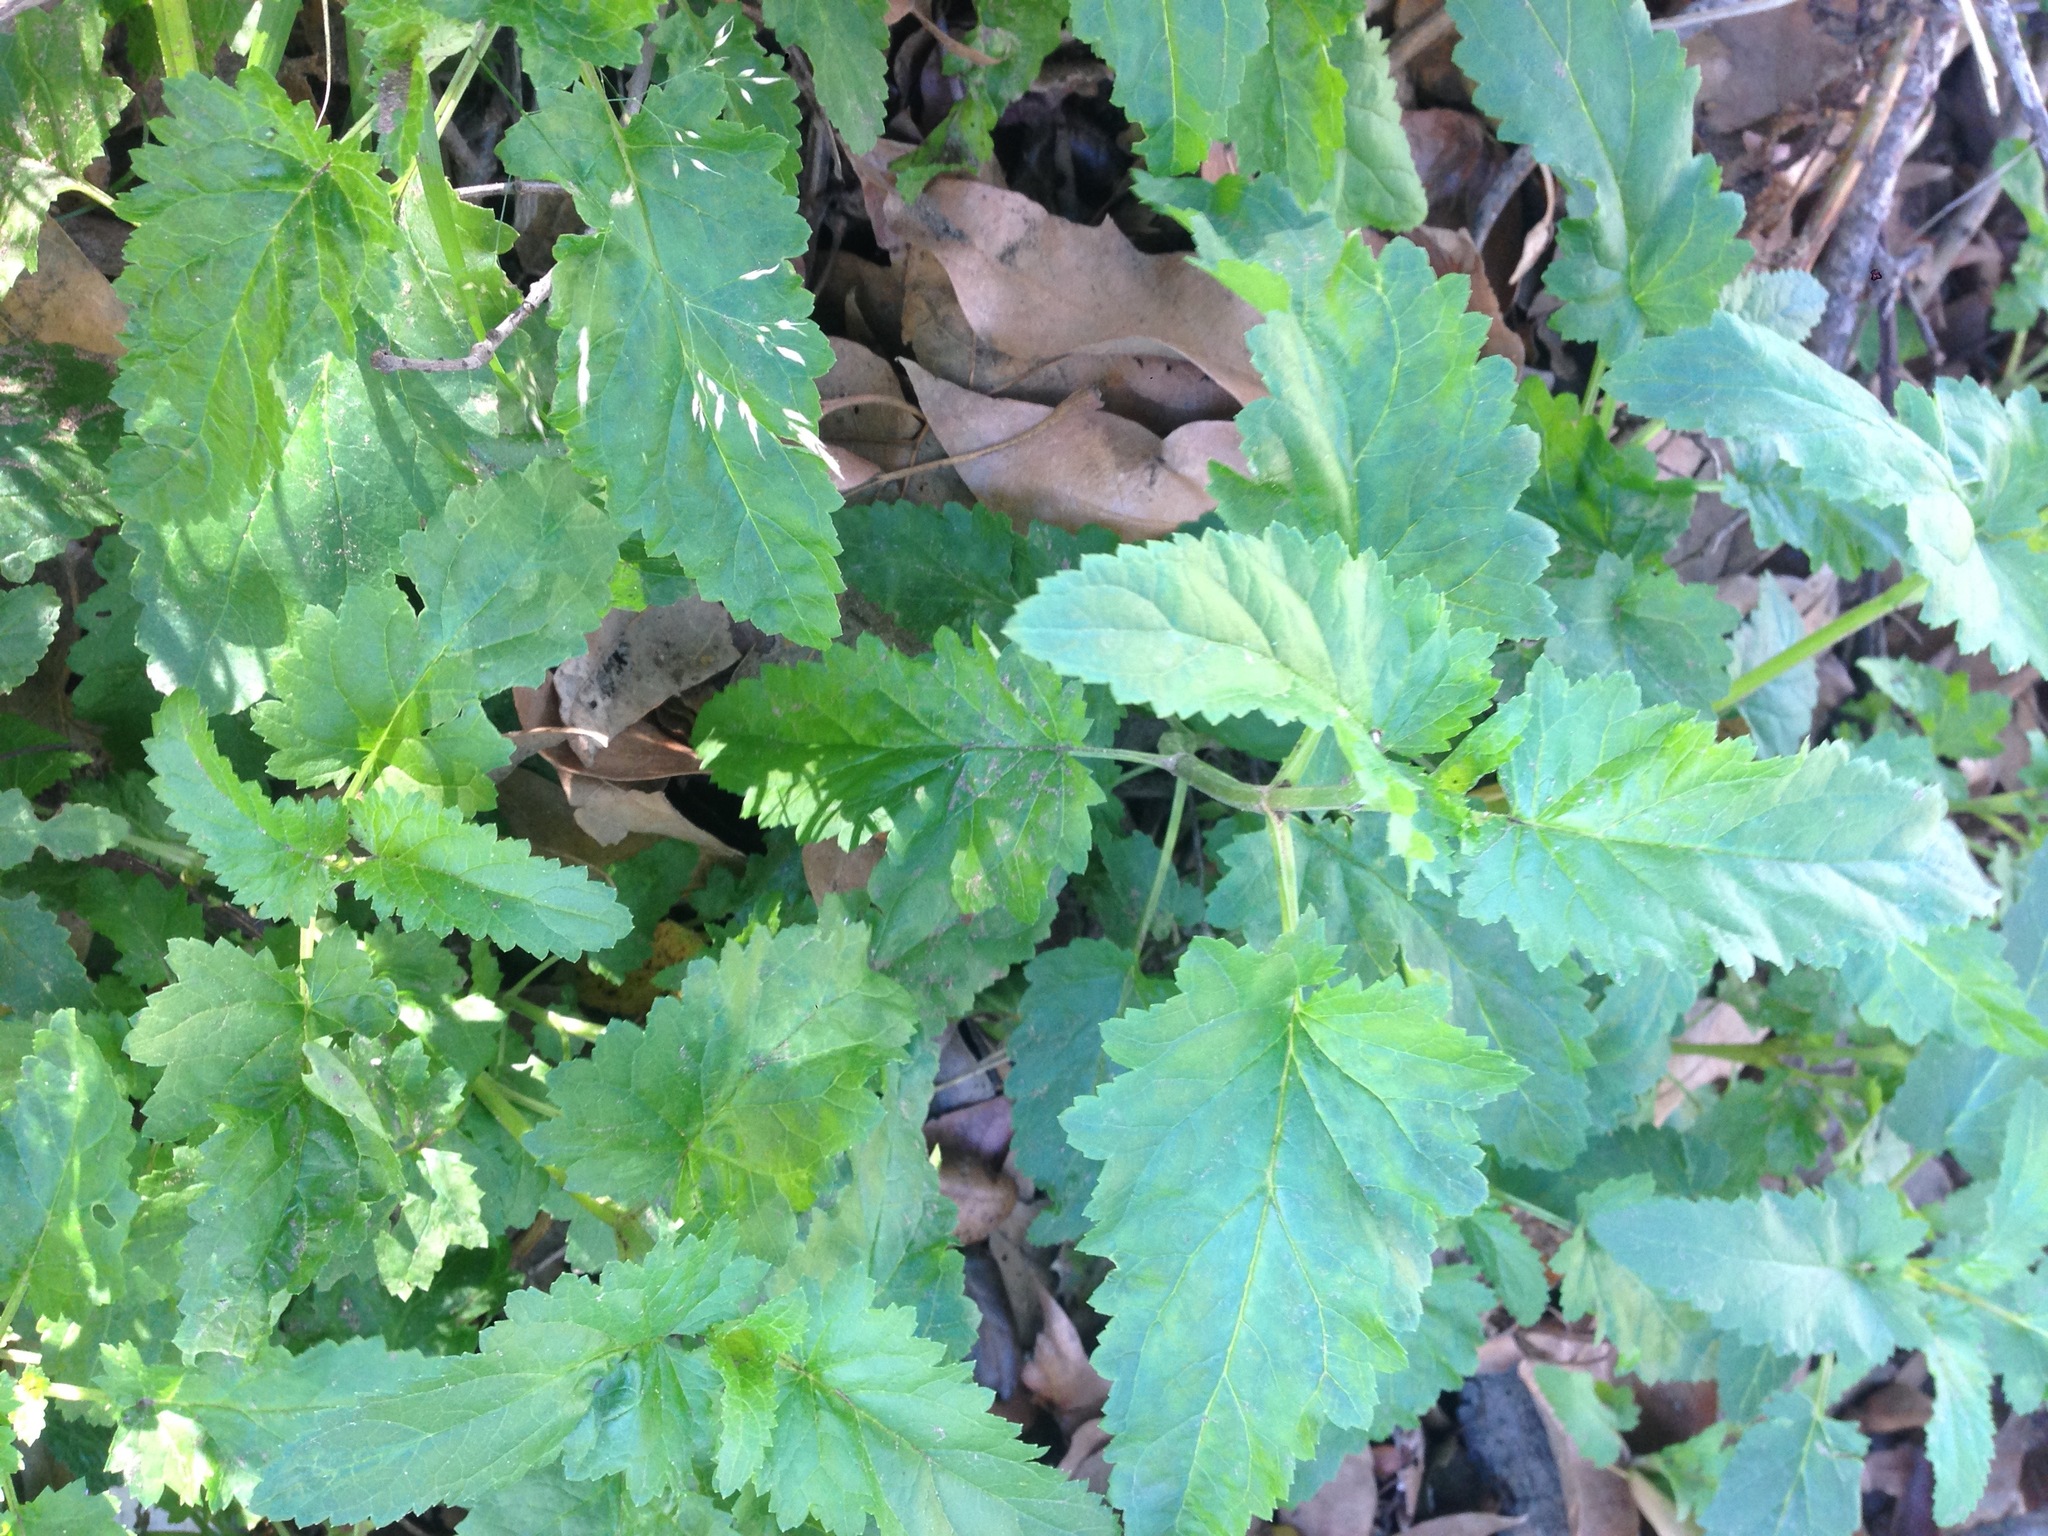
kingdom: Plantae
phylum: Tracheophyta
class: Magnoliopsida
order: Lamiales
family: Scrophulariaceae
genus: Scrophularia
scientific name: Scrophularia californica
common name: California figwort
